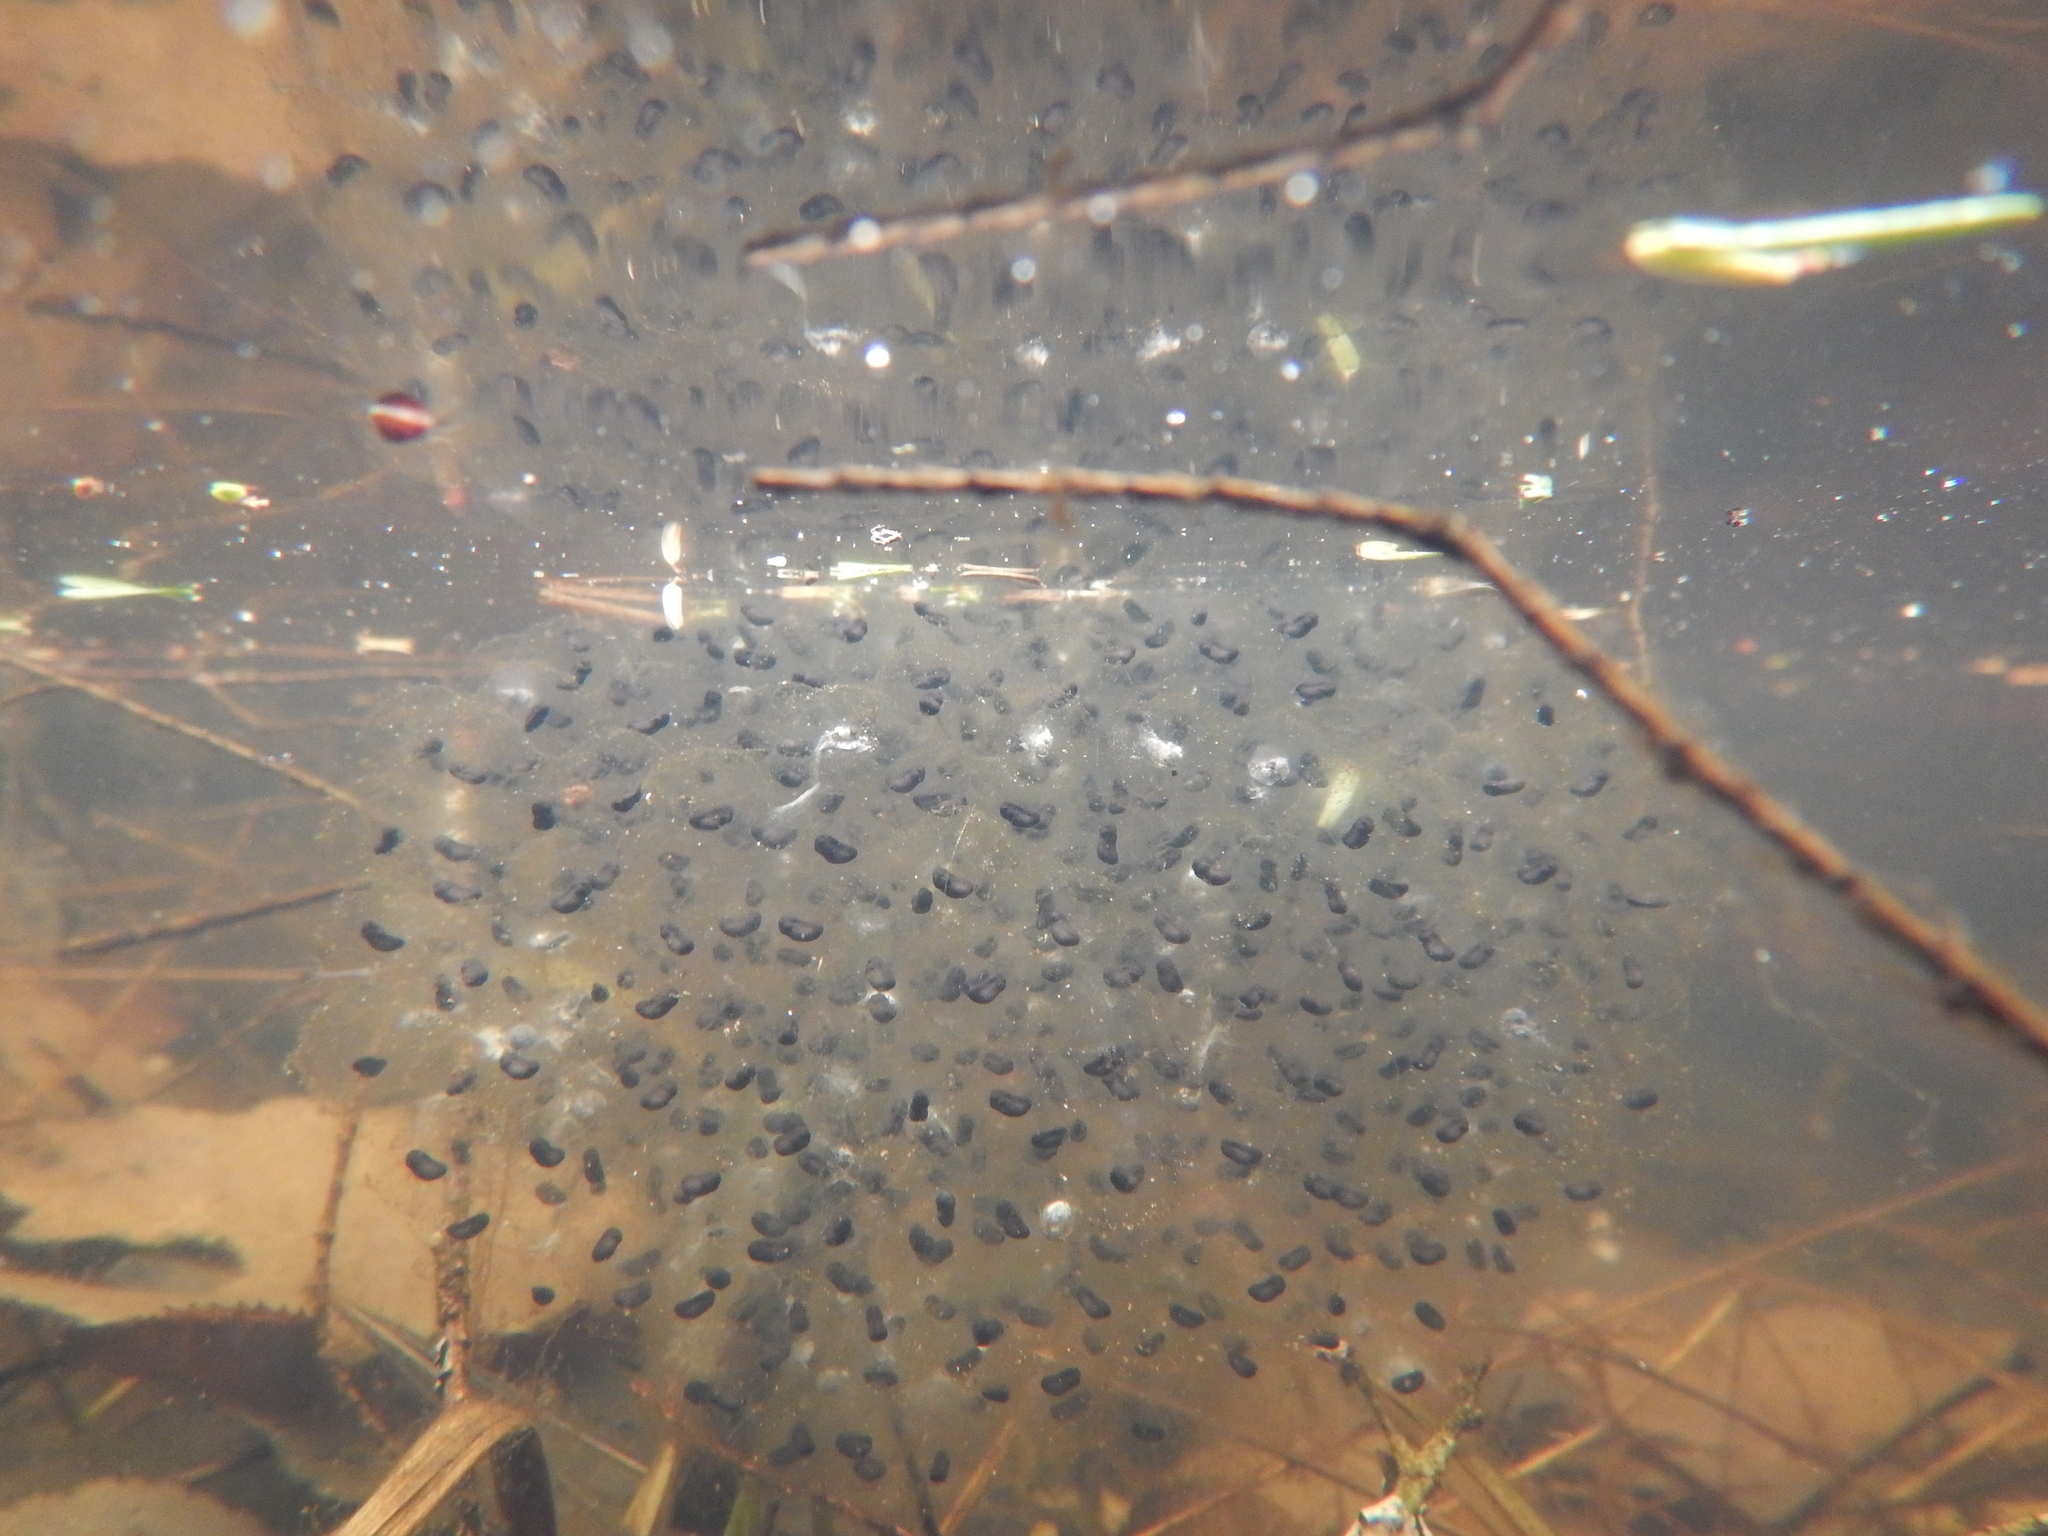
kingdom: Animalia
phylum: Chordata
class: Amphibia
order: Anura
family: Ranidae
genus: Lithobates
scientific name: Lithobates sylvaticus
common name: Wood frog
